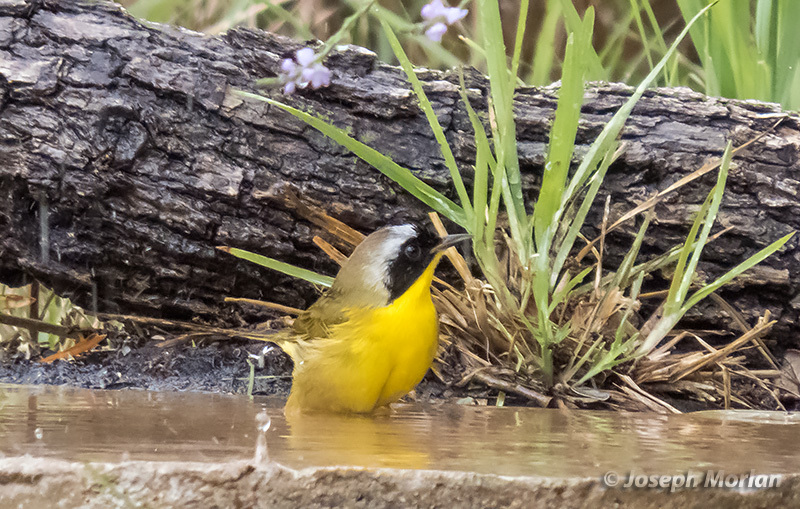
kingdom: Animalia
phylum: Chordata
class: Aves
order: Passeriformes
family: Parulidae
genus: Geothlypis
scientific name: Geothlypis trichas
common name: Common yellowthroat
